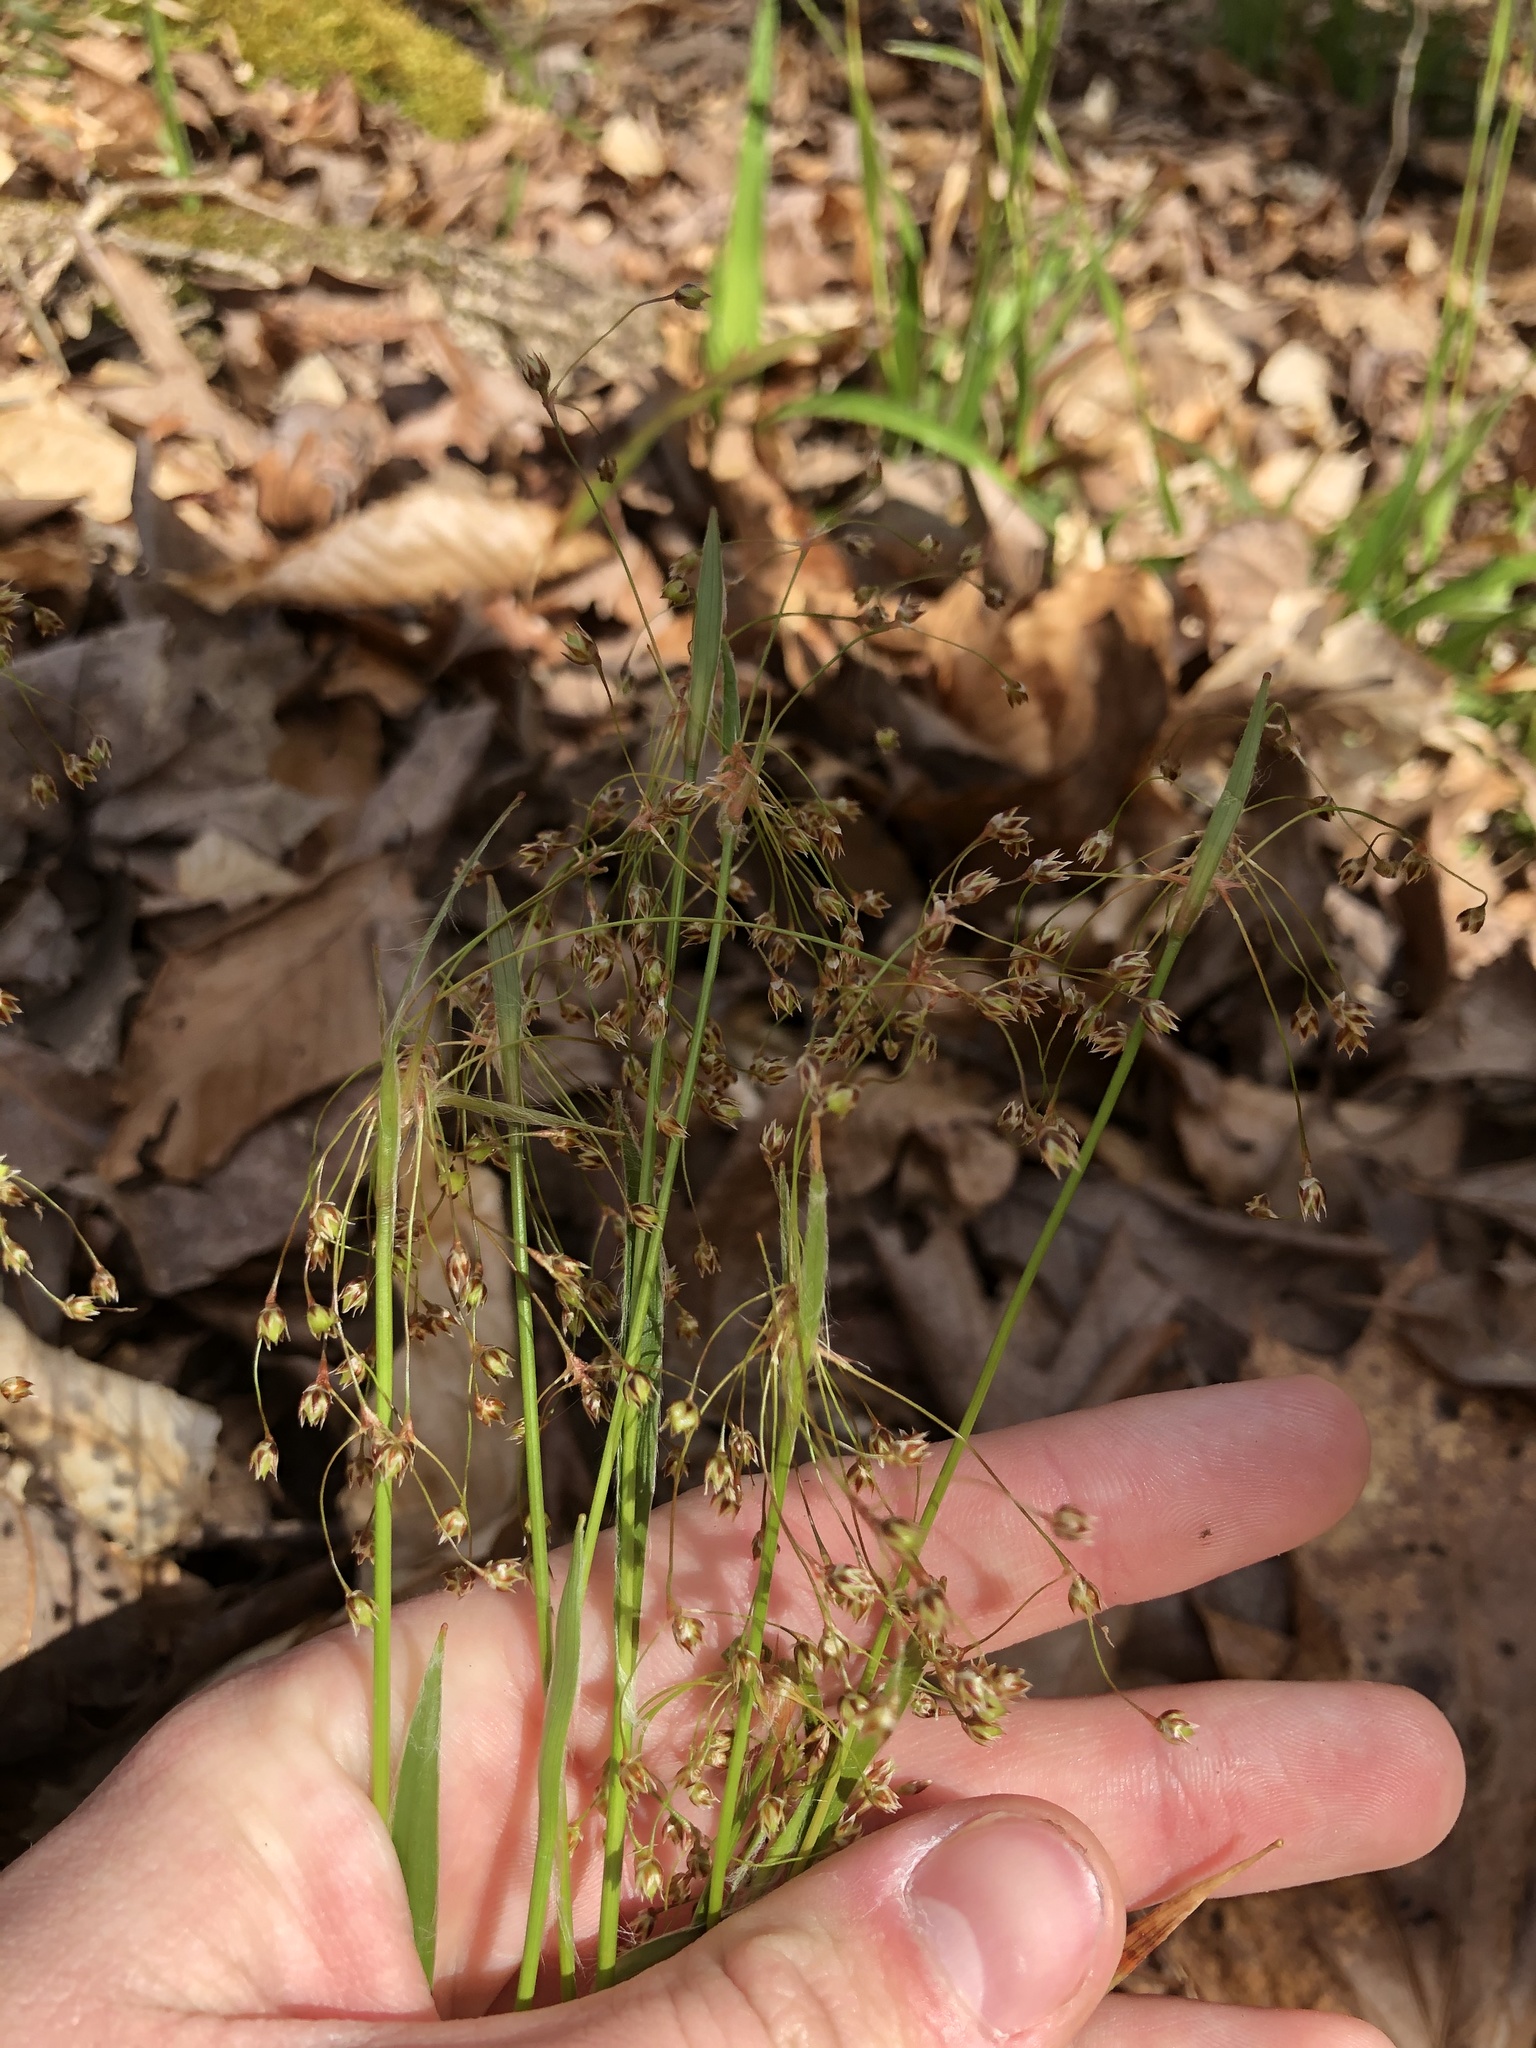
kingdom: Plantae
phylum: Tracheophyta
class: Liliopsida
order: Poales
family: Juncaceae
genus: Luzula
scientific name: Luzula acuminata
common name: Hairy woodrush
